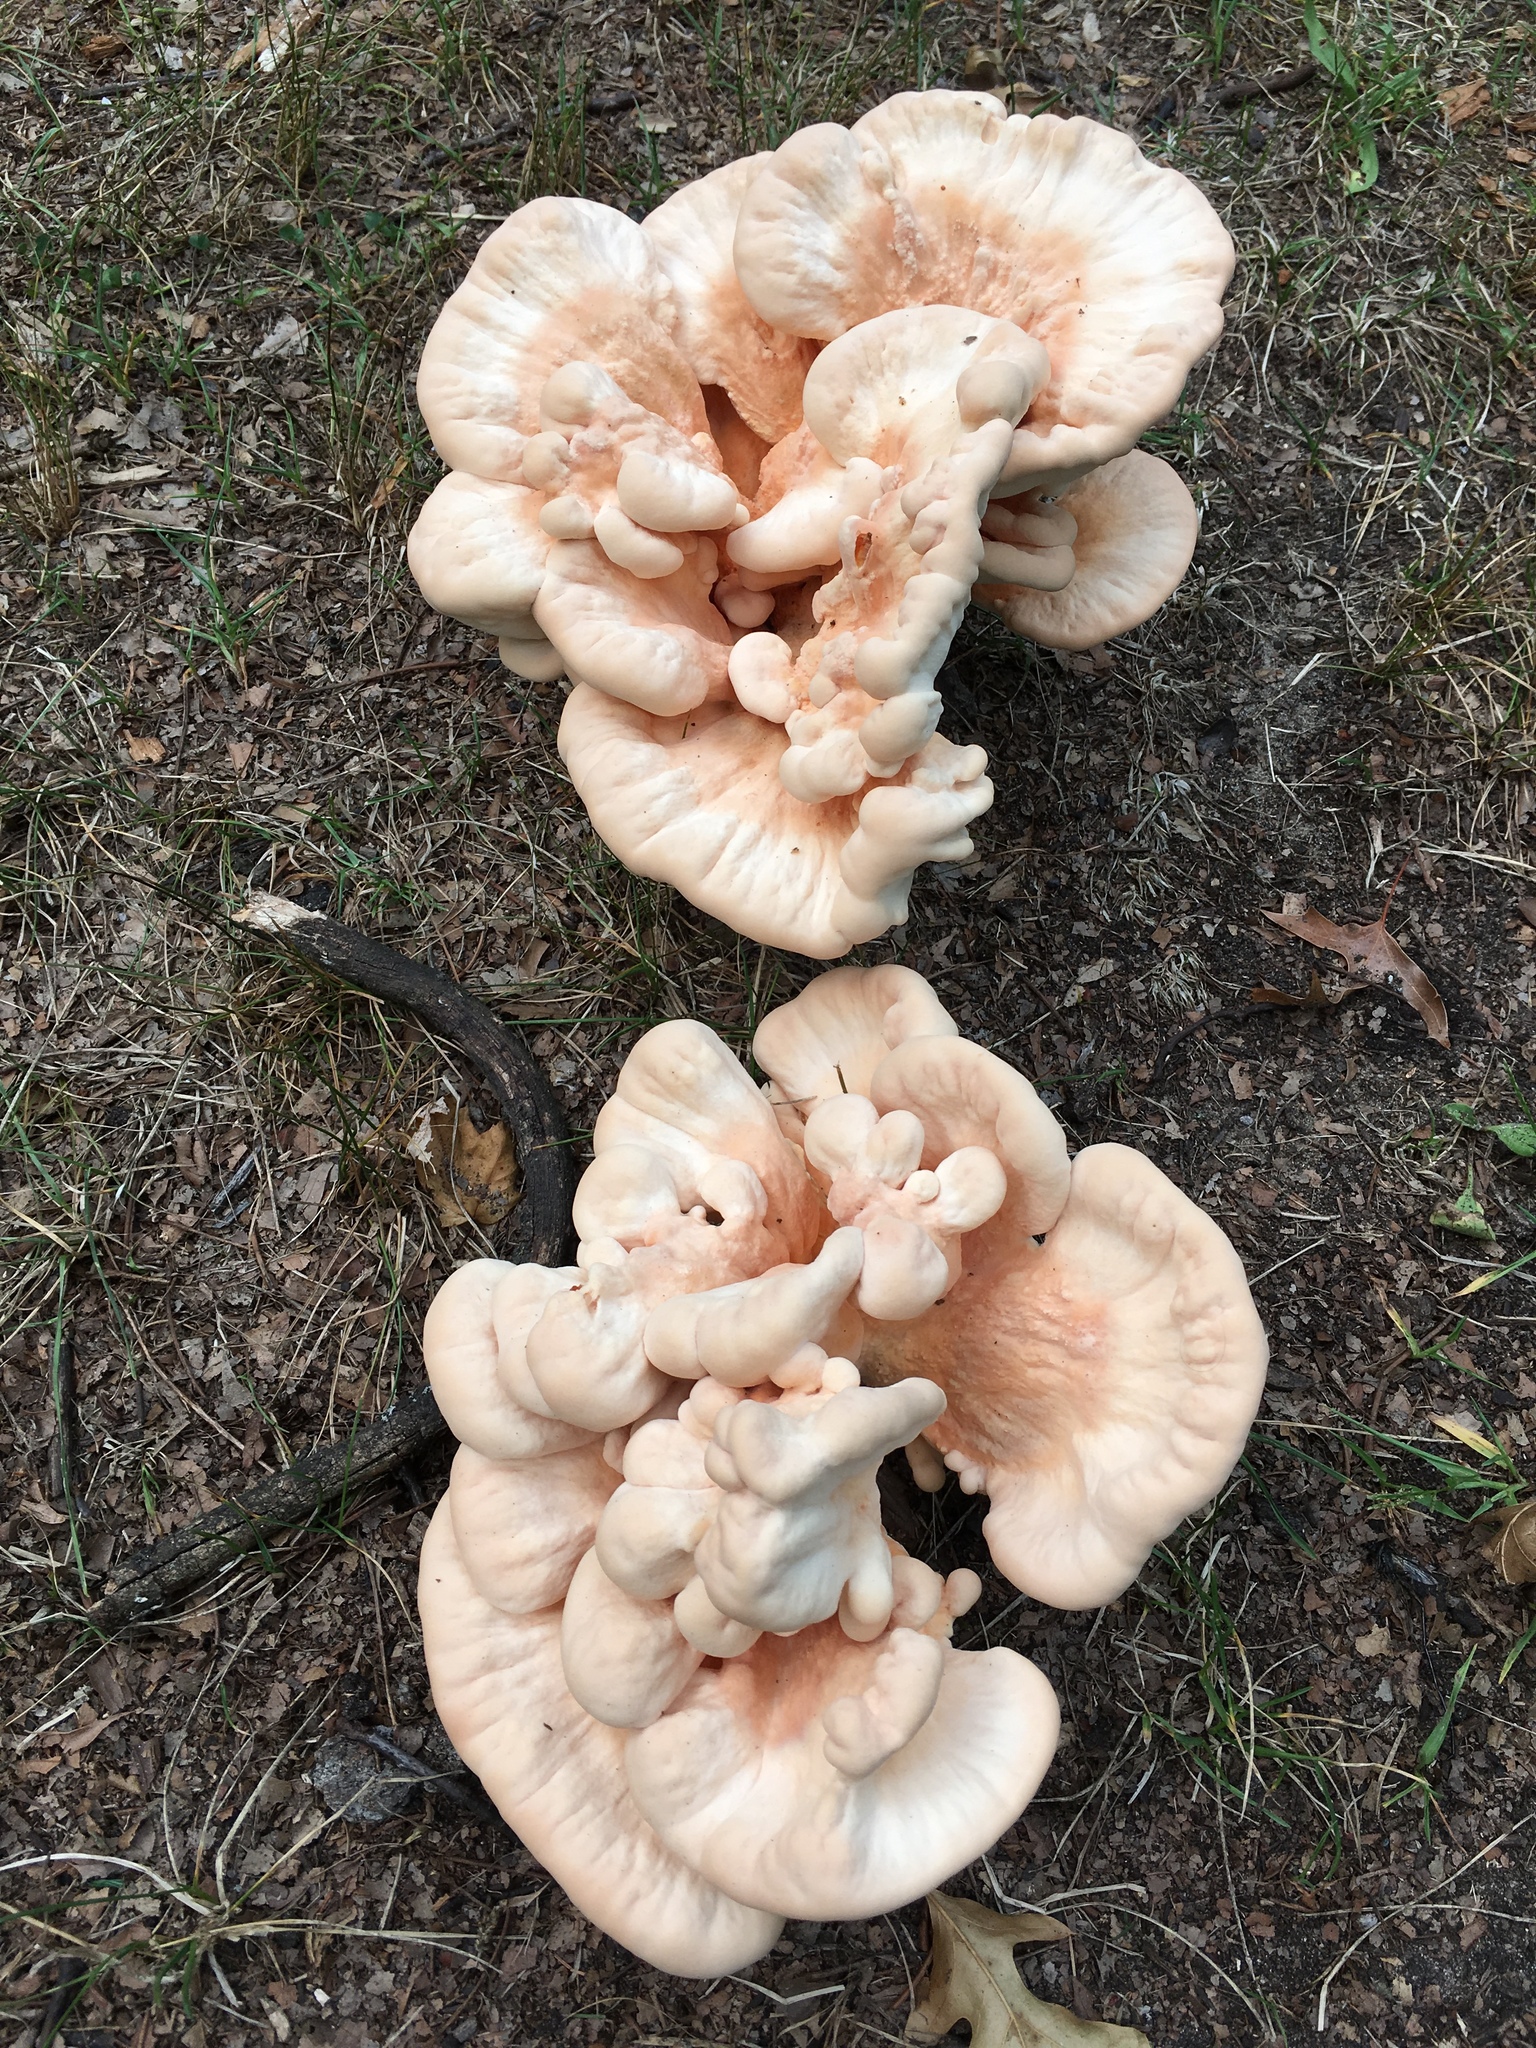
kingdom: Fungi
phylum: Basidiomycota
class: Agaricomycetes
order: Polyporales
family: Laetiporaceae
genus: Laetiporus
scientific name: Laetiporus sulphureus
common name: Chicken of the woods
